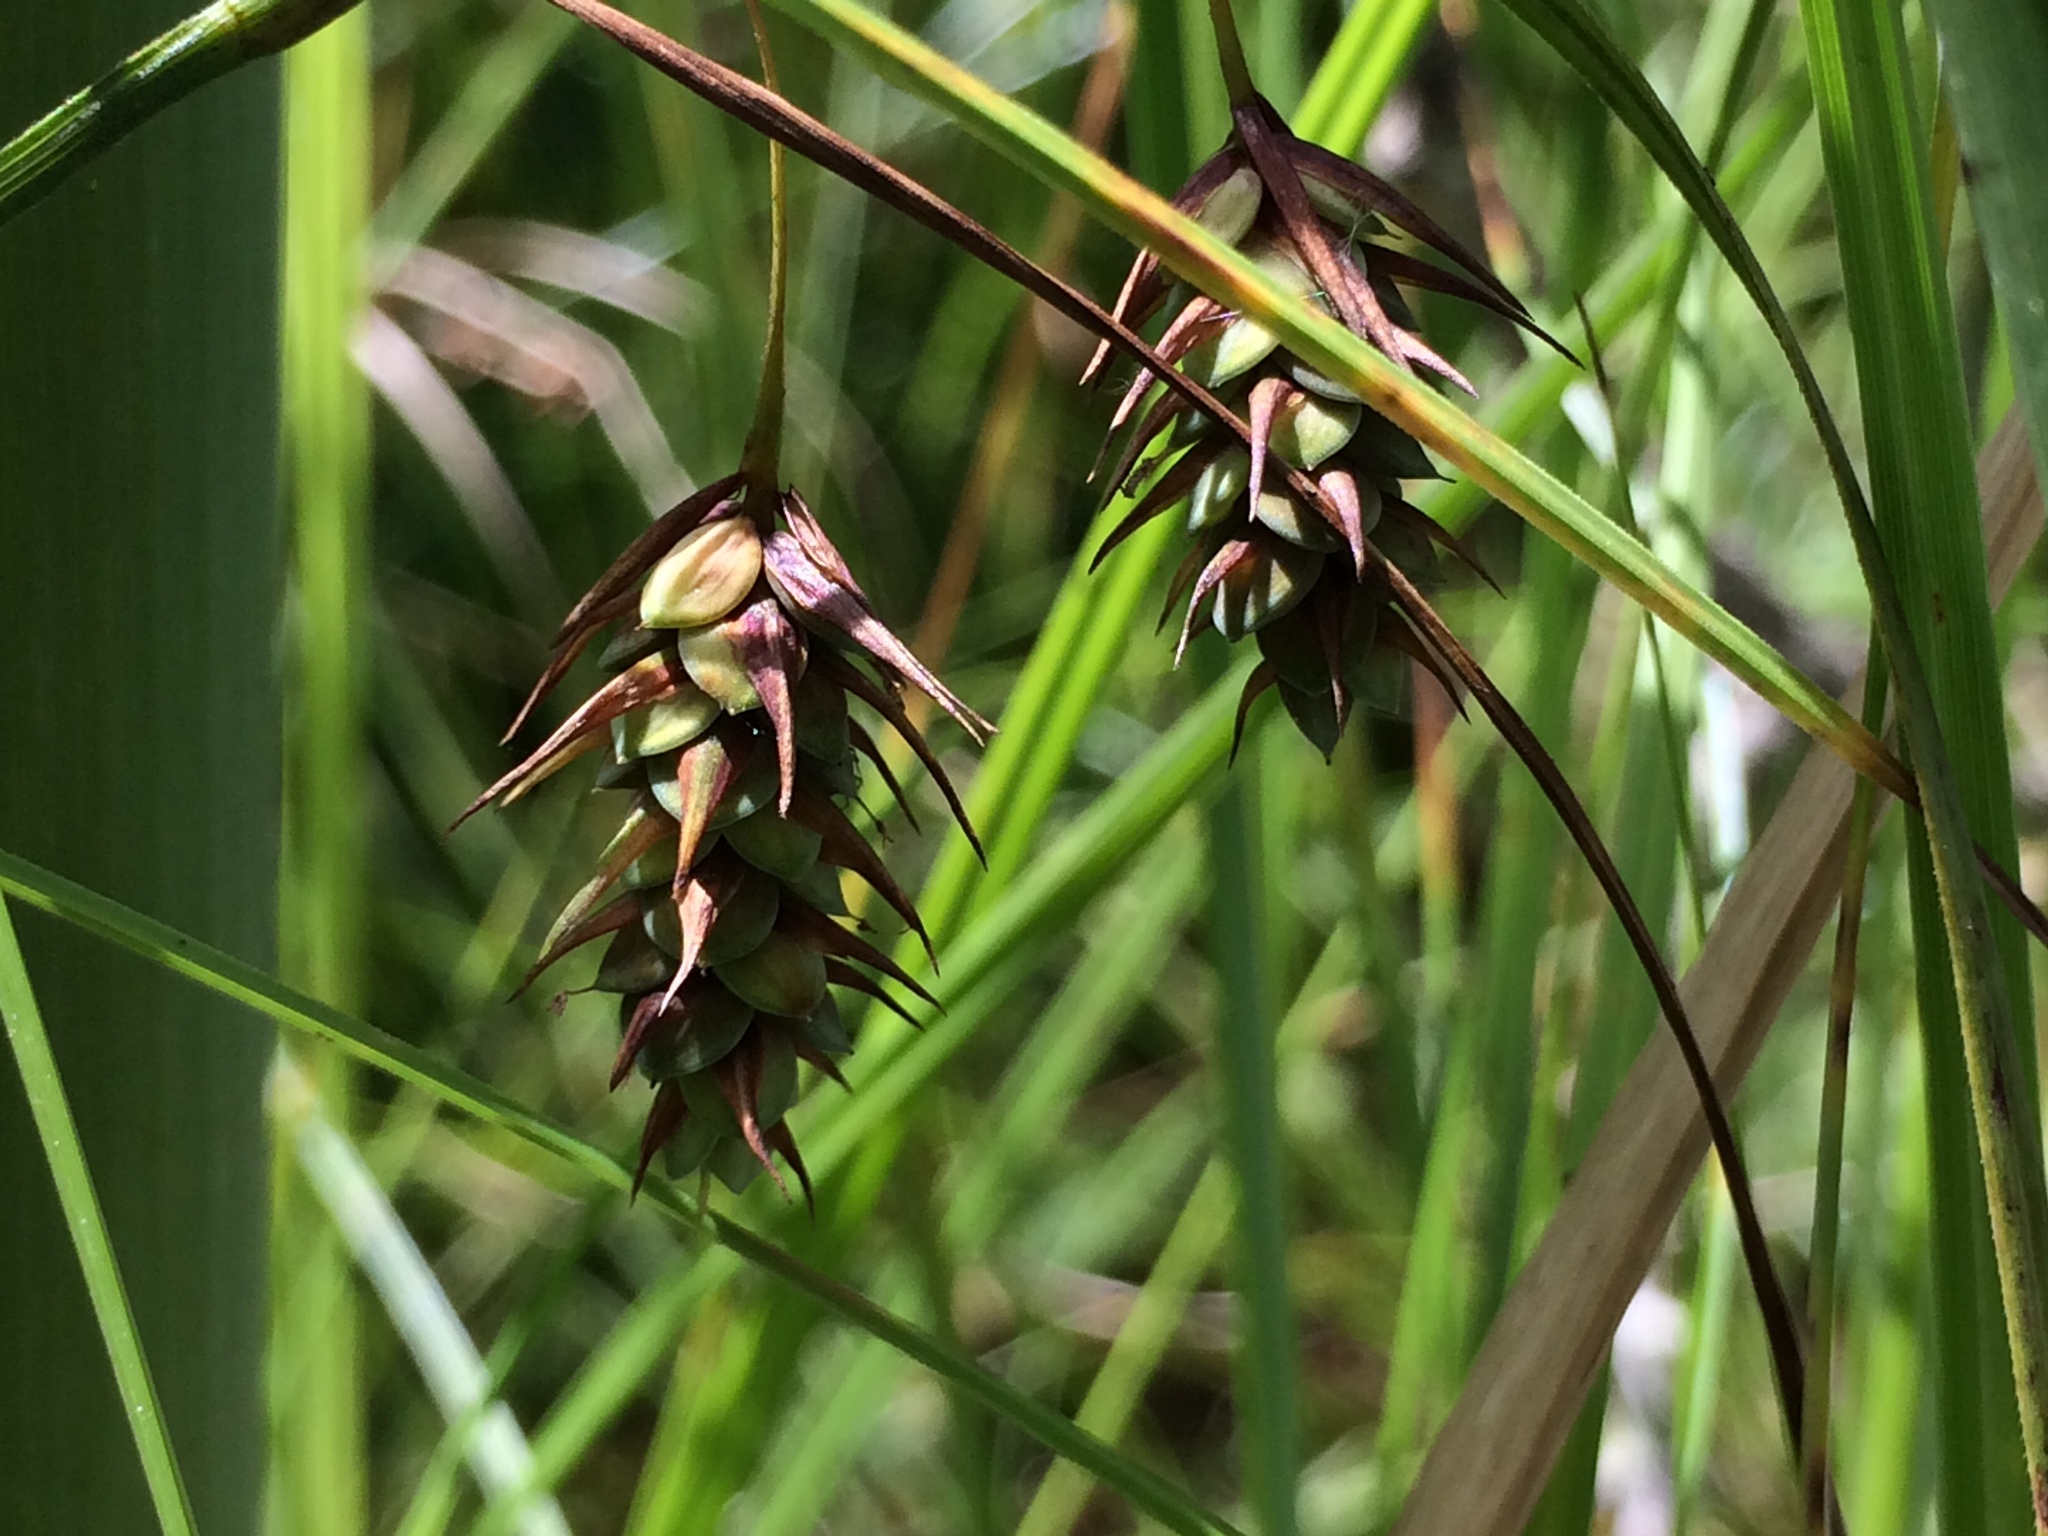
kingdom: Plantae
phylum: Tracheophyta
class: Liliopsida
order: Poales
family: Cyperaceae
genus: Carex
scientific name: Carex magellanica
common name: Bog sedge
